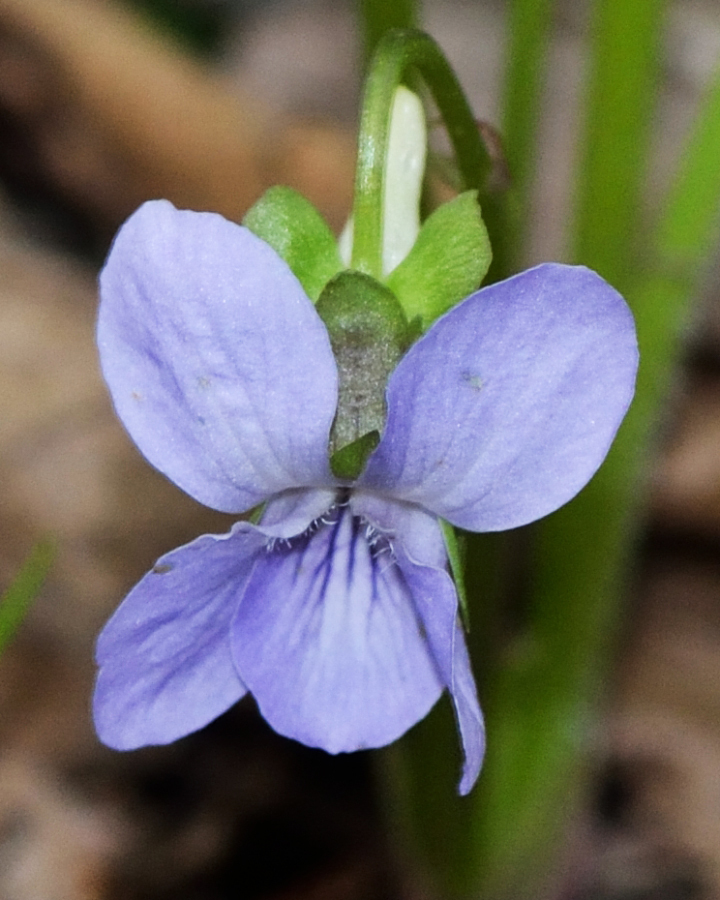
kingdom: Plantae
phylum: Tracheophyta
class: Magnoliopsida
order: Malpighiales
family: Violaceae
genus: Viola
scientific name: Viola mirabilis
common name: Wonder violet
